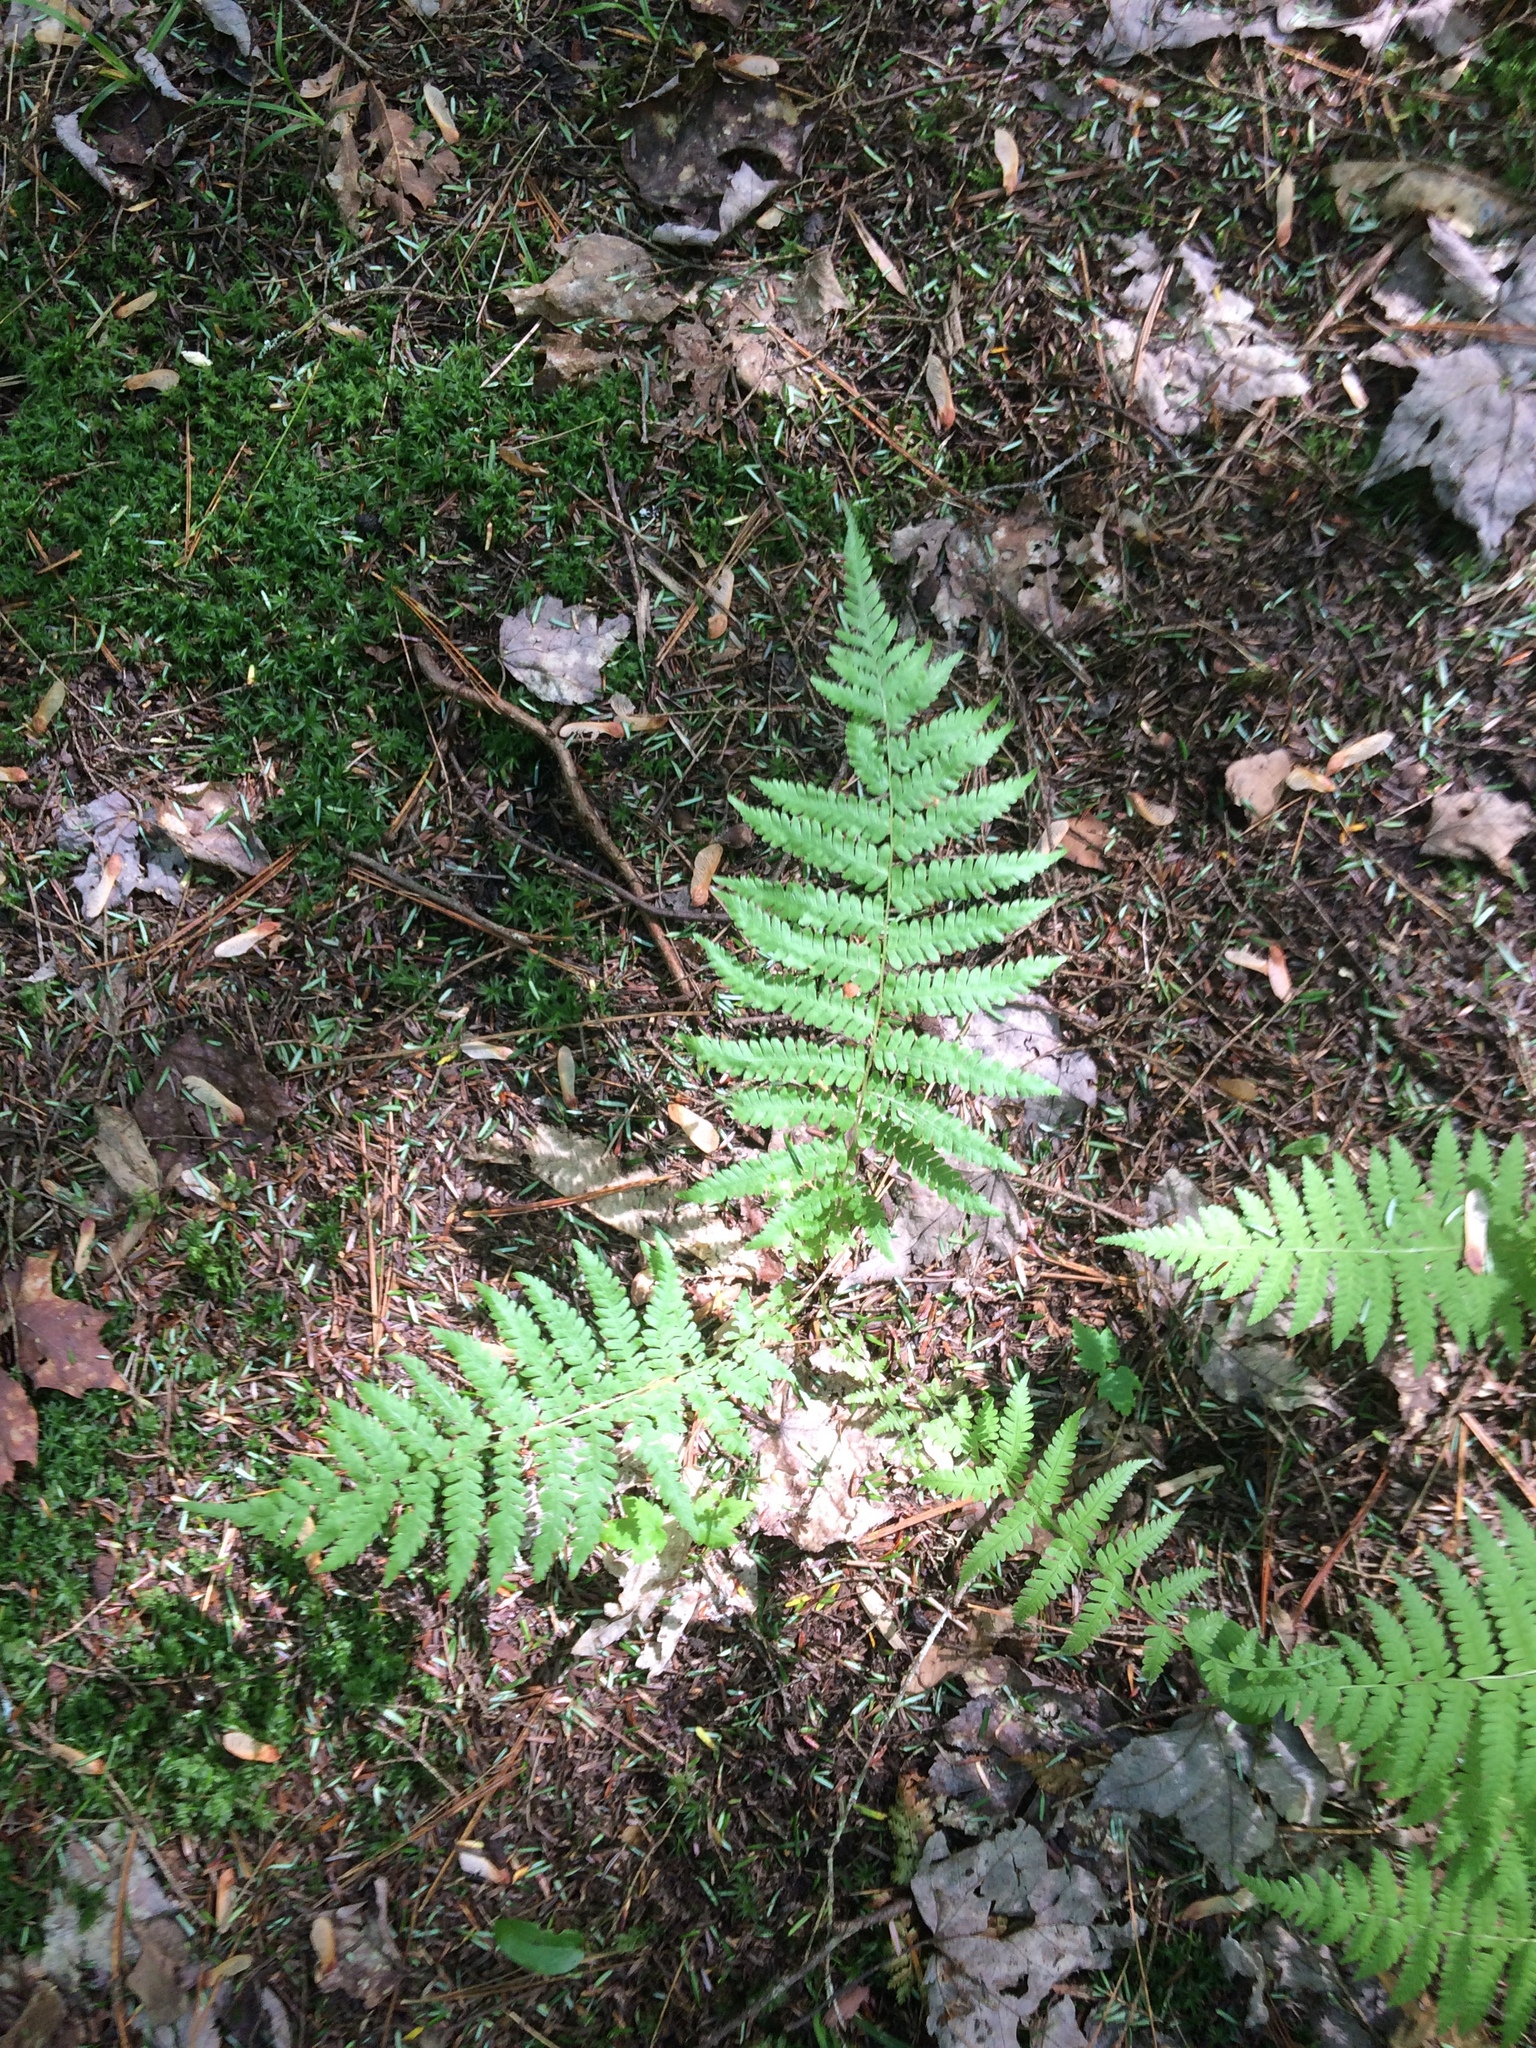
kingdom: Plantae
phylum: Tracheophyta
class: Polypodiopsida
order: Polypodiales
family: Thelypteridaceae
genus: Amauropelta
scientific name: Amauropelta noveboracensis
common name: New york fern
